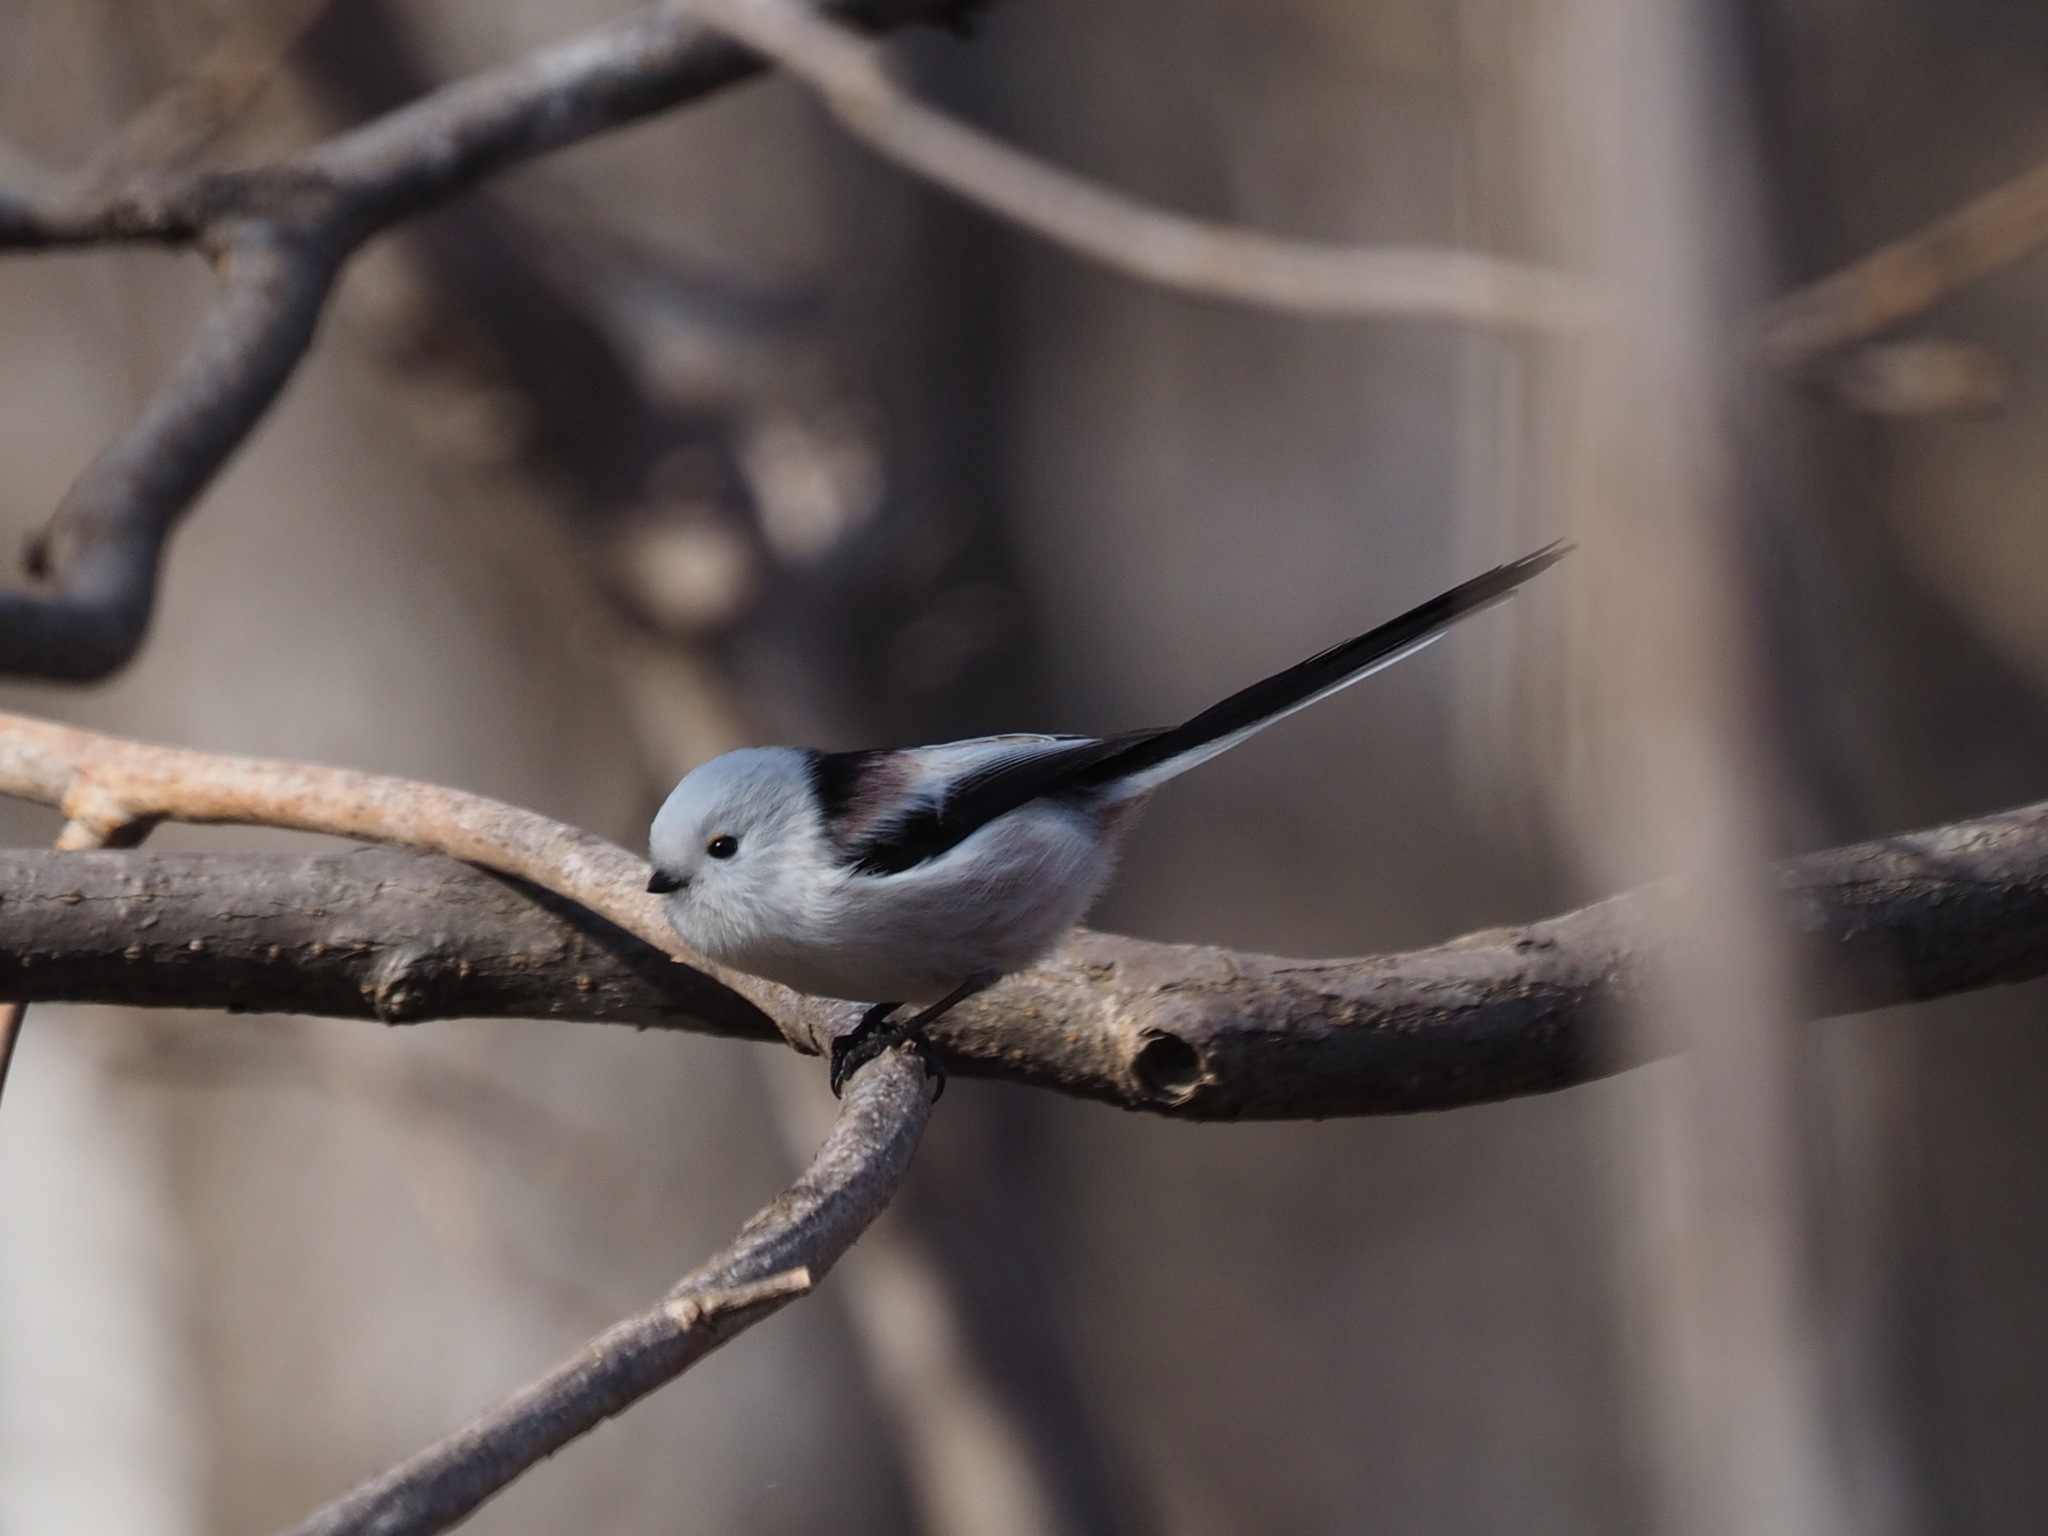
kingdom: Animalia
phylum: Chordata
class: Aves
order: Passeriformes
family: Aegithalidae
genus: Aegithalos
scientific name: Aegithalos caudatus
